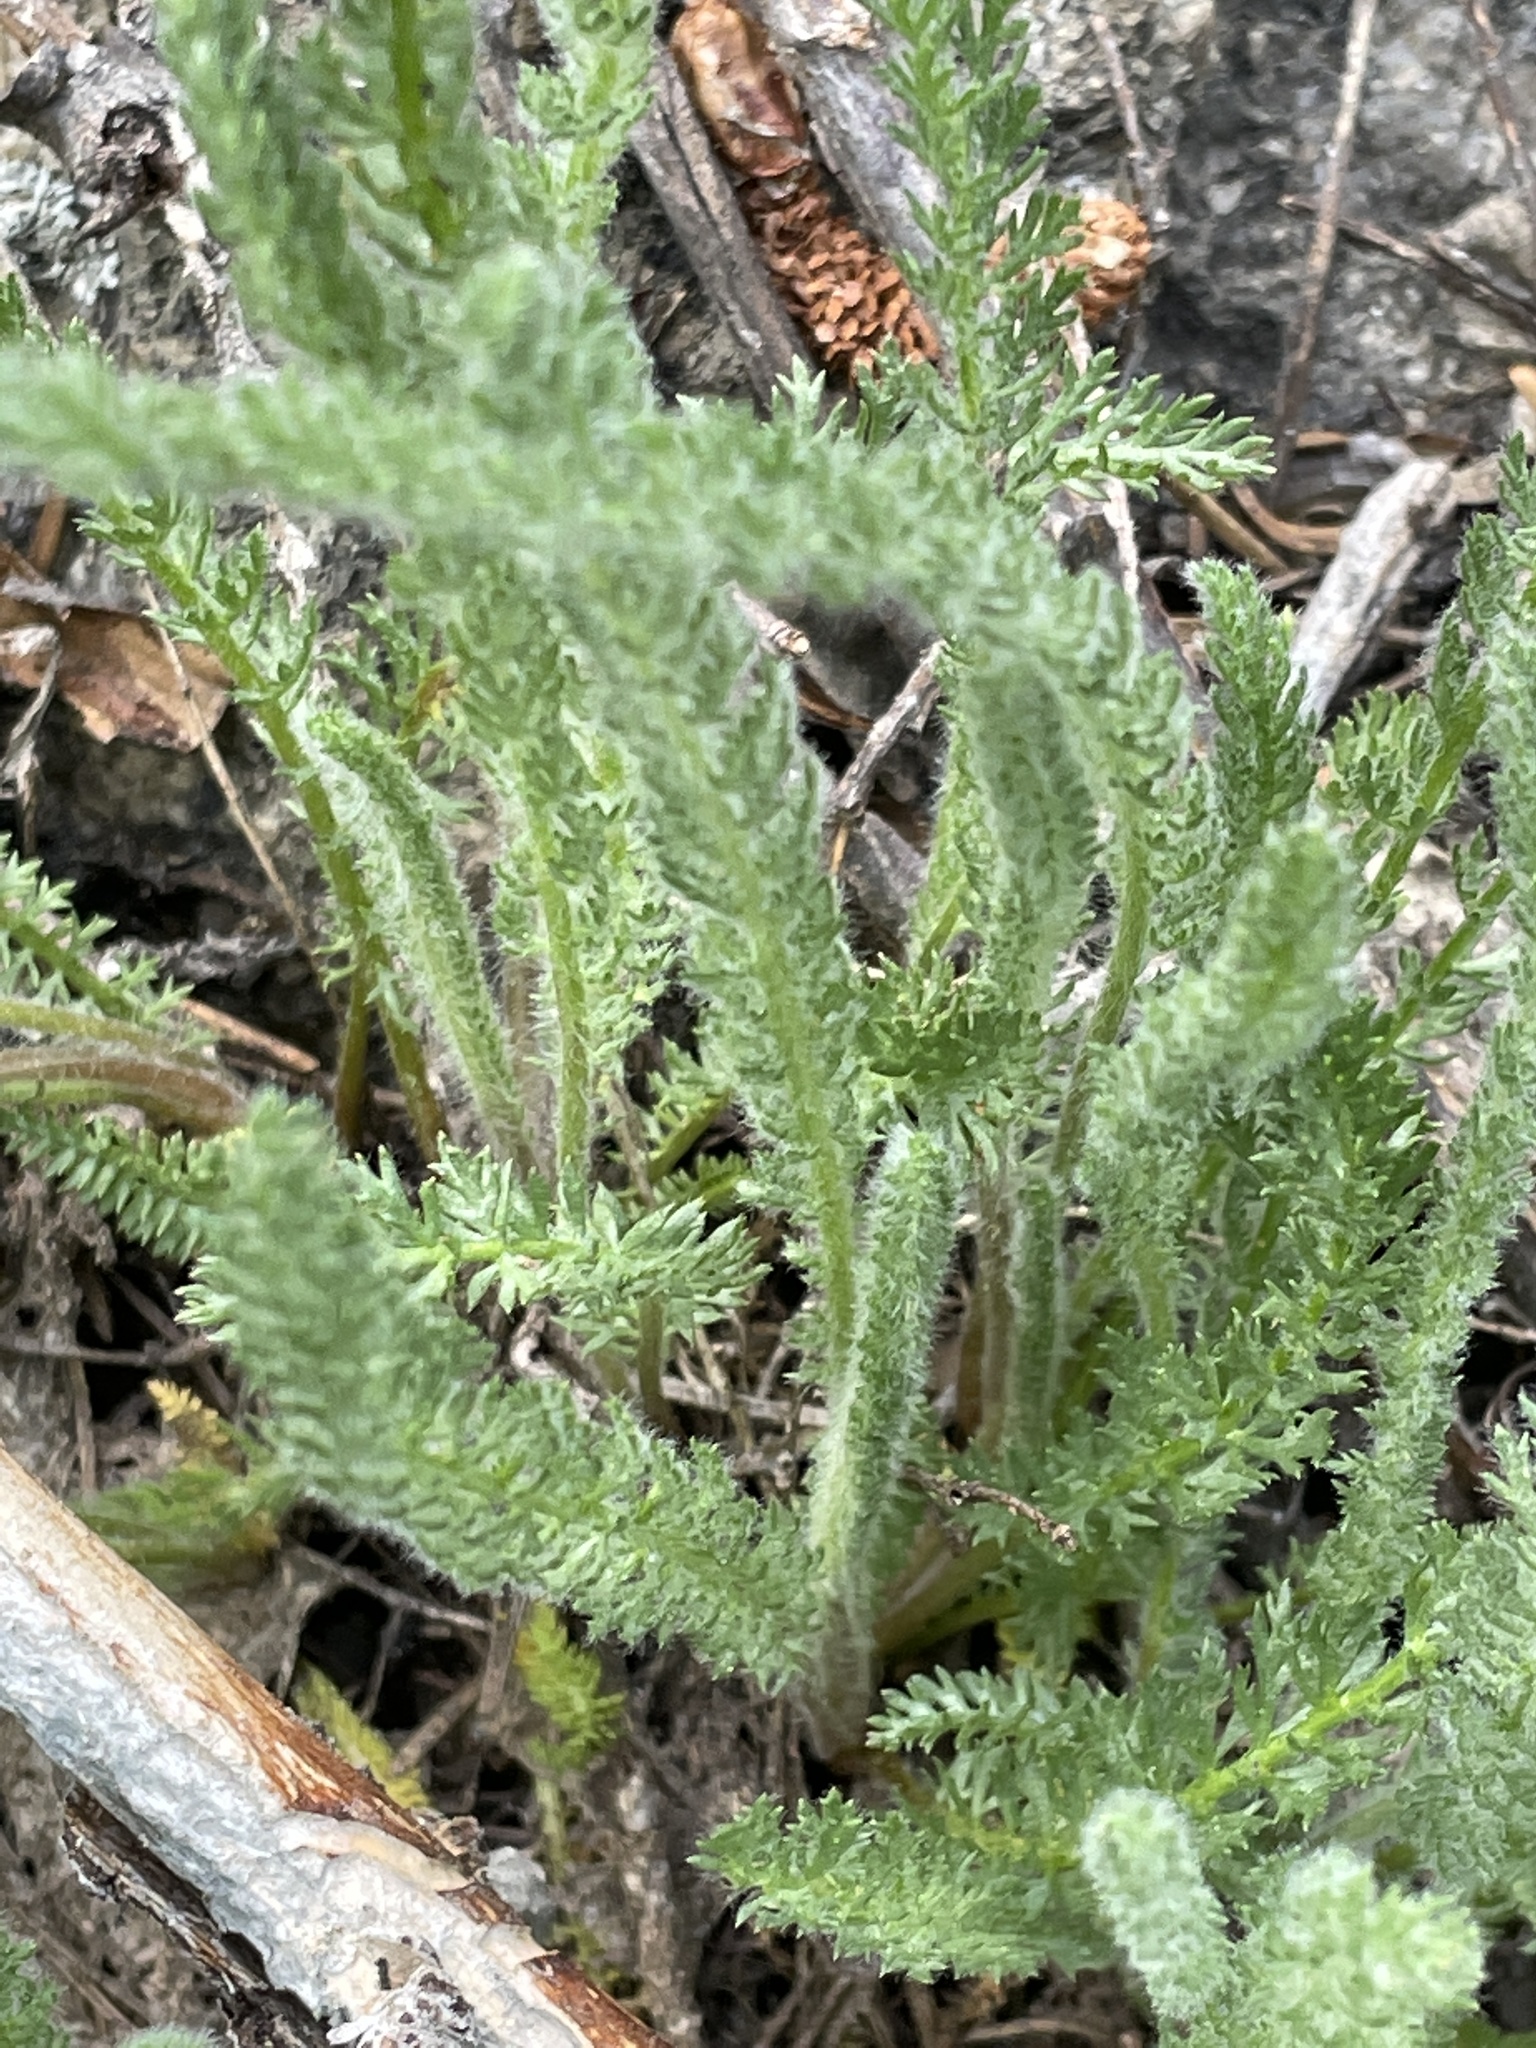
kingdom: Plantae
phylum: Tracheophyta
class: Magnoliopsida
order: Asterales
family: Asteraceae
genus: Achillea
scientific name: Achillea millefolium
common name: Yarrow
